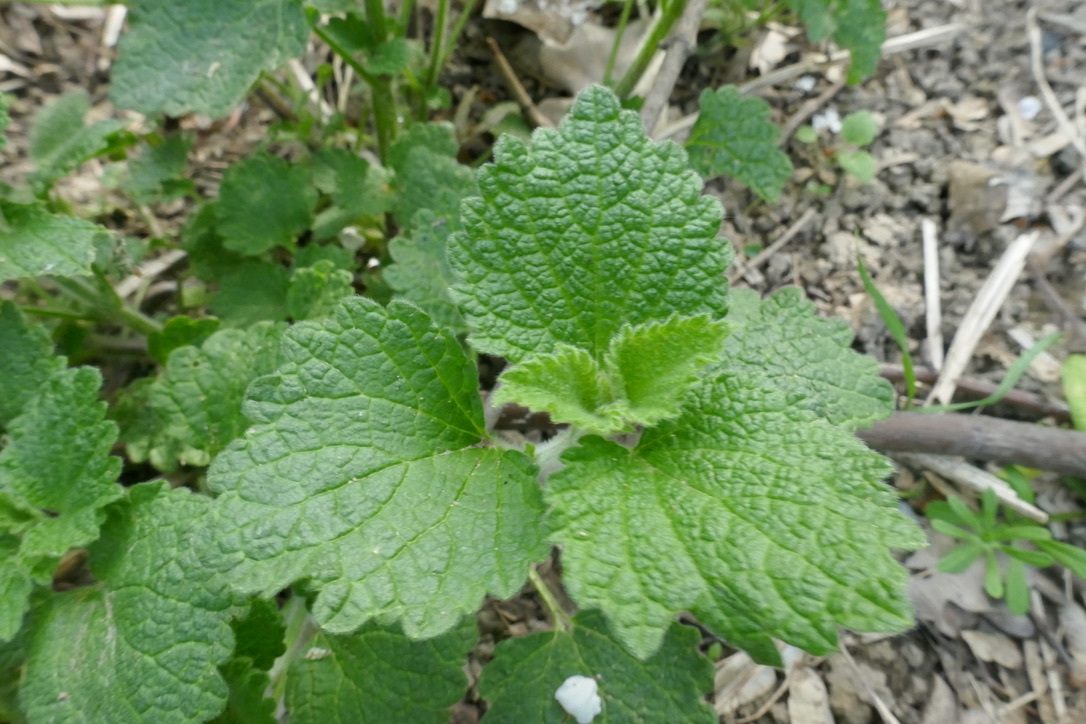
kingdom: Plantae
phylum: Tracheophyta
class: Magnoliopsida
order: Lamiales
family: Lamiaceae
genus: Ballota
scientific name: Ballota nigra
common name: Black horehound
